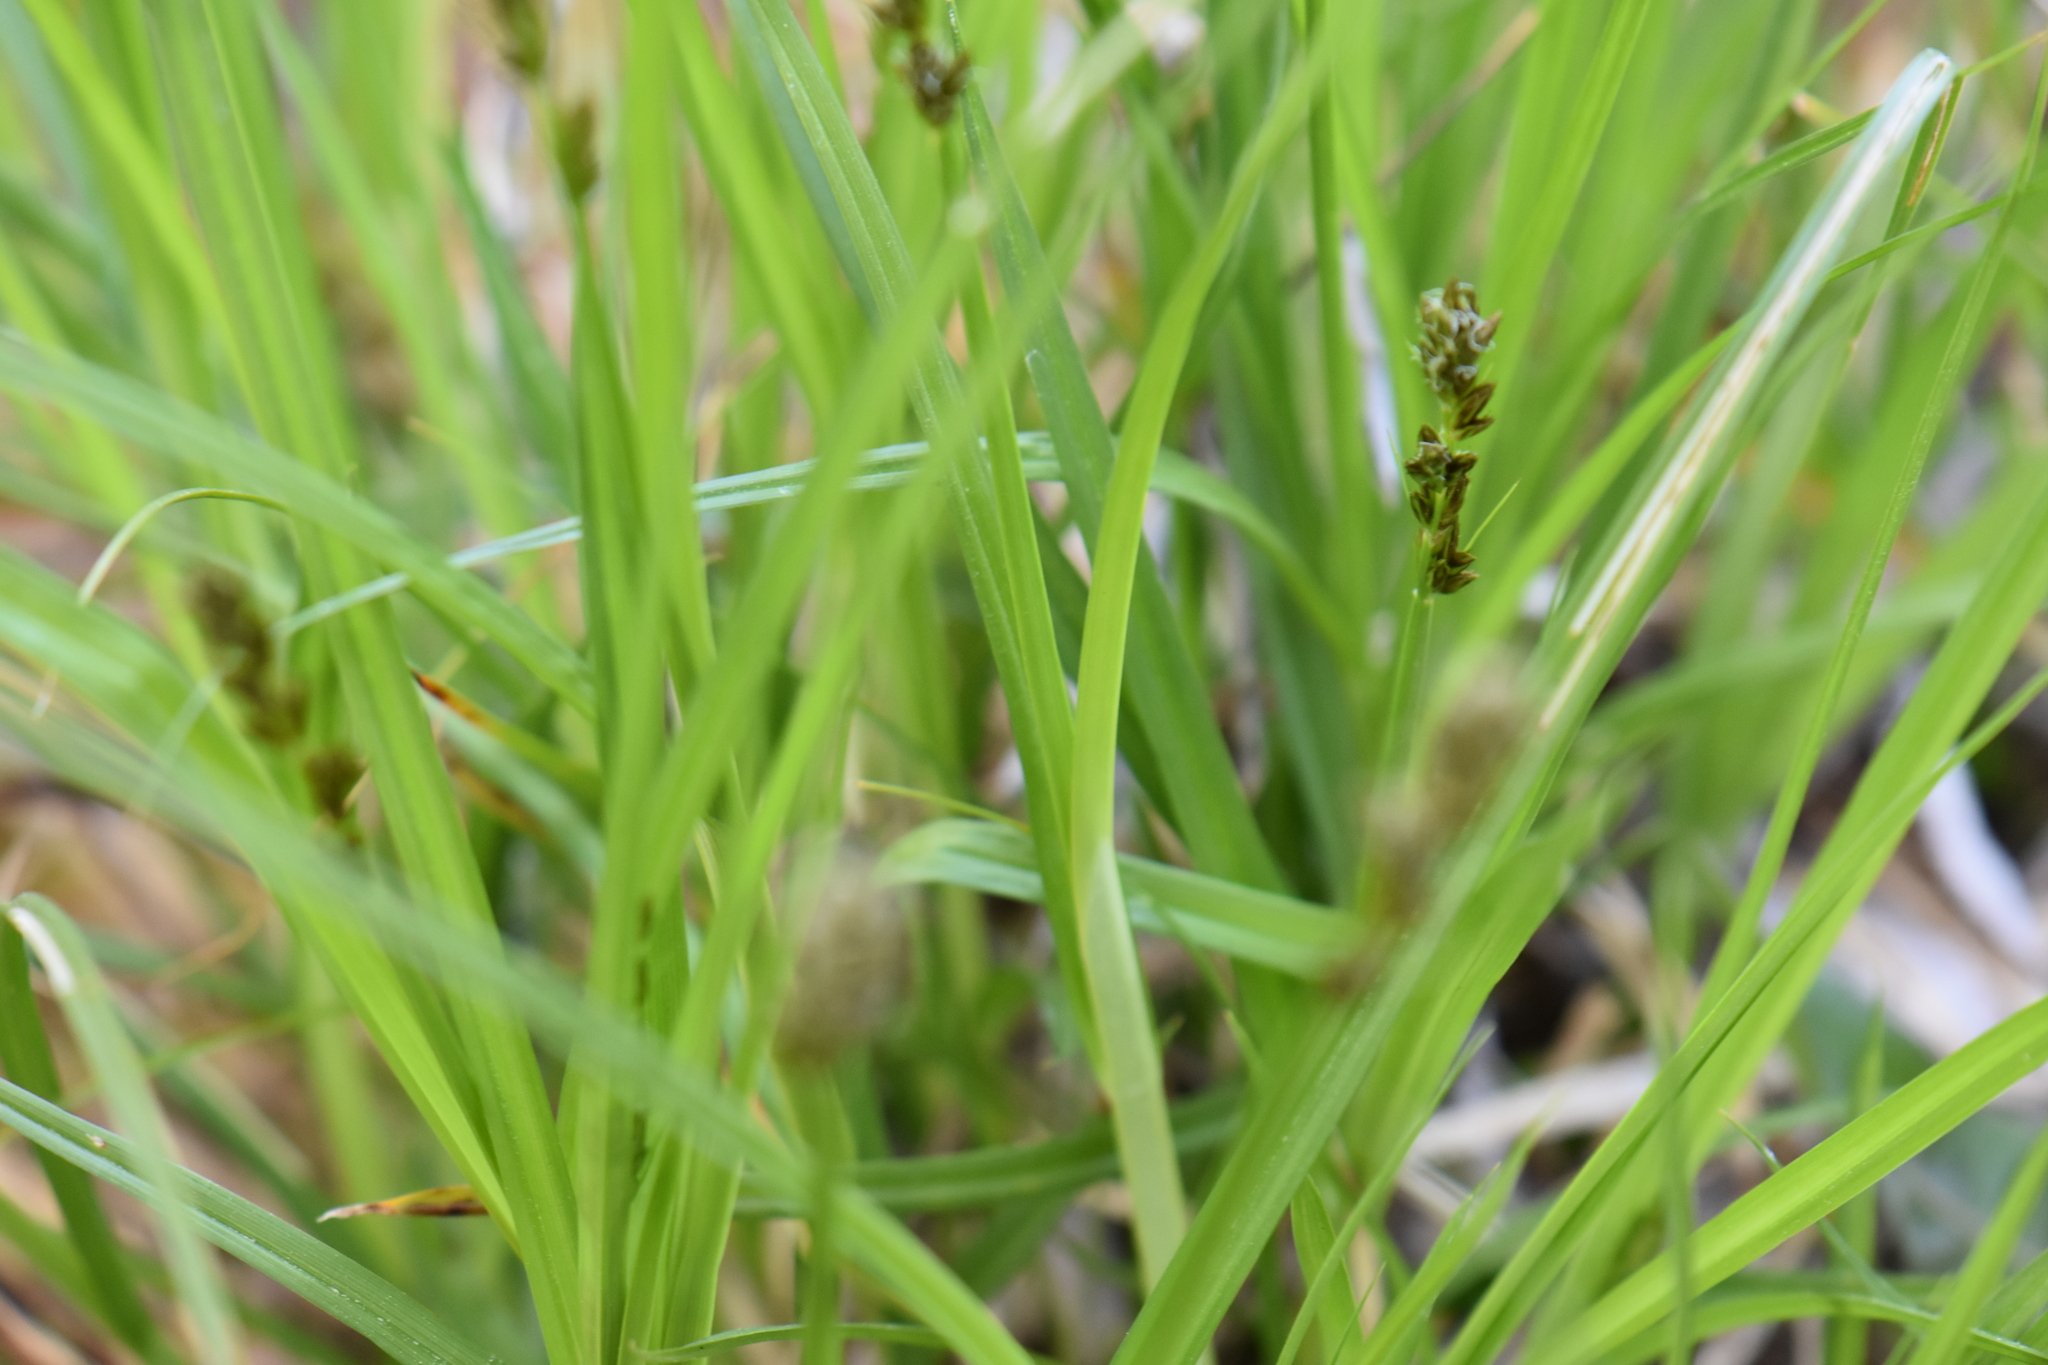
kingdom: Plantae
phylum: Tracheophyta
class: Liliopsida
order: Poales
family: Cyperaceae
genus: Carex
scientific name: Carex otrubae
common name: False fox-sedge
